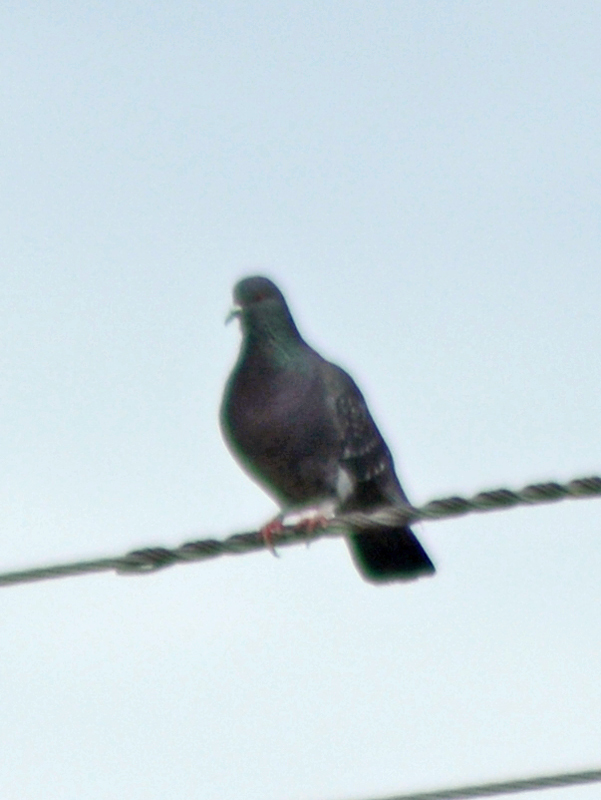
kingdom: Animalia
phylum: Chordata
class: Aves
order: Columbiformes
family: Columbidae
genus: Columba
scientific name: Columba livia
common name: Rock pigeon
